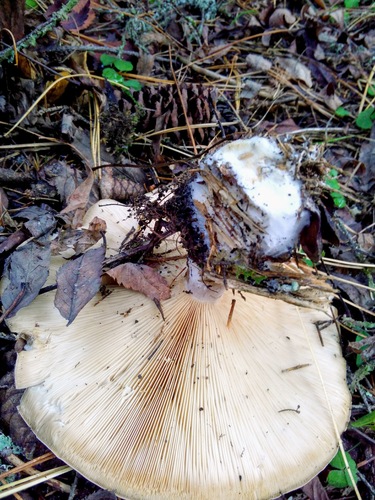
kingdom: Fungi
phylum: Basidiomycota
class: Agaricomycetes
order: Agaricales
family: Tricholomataceae
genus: Clitocybe
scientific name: Clitocybe nebularis
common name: Clouded agaric
